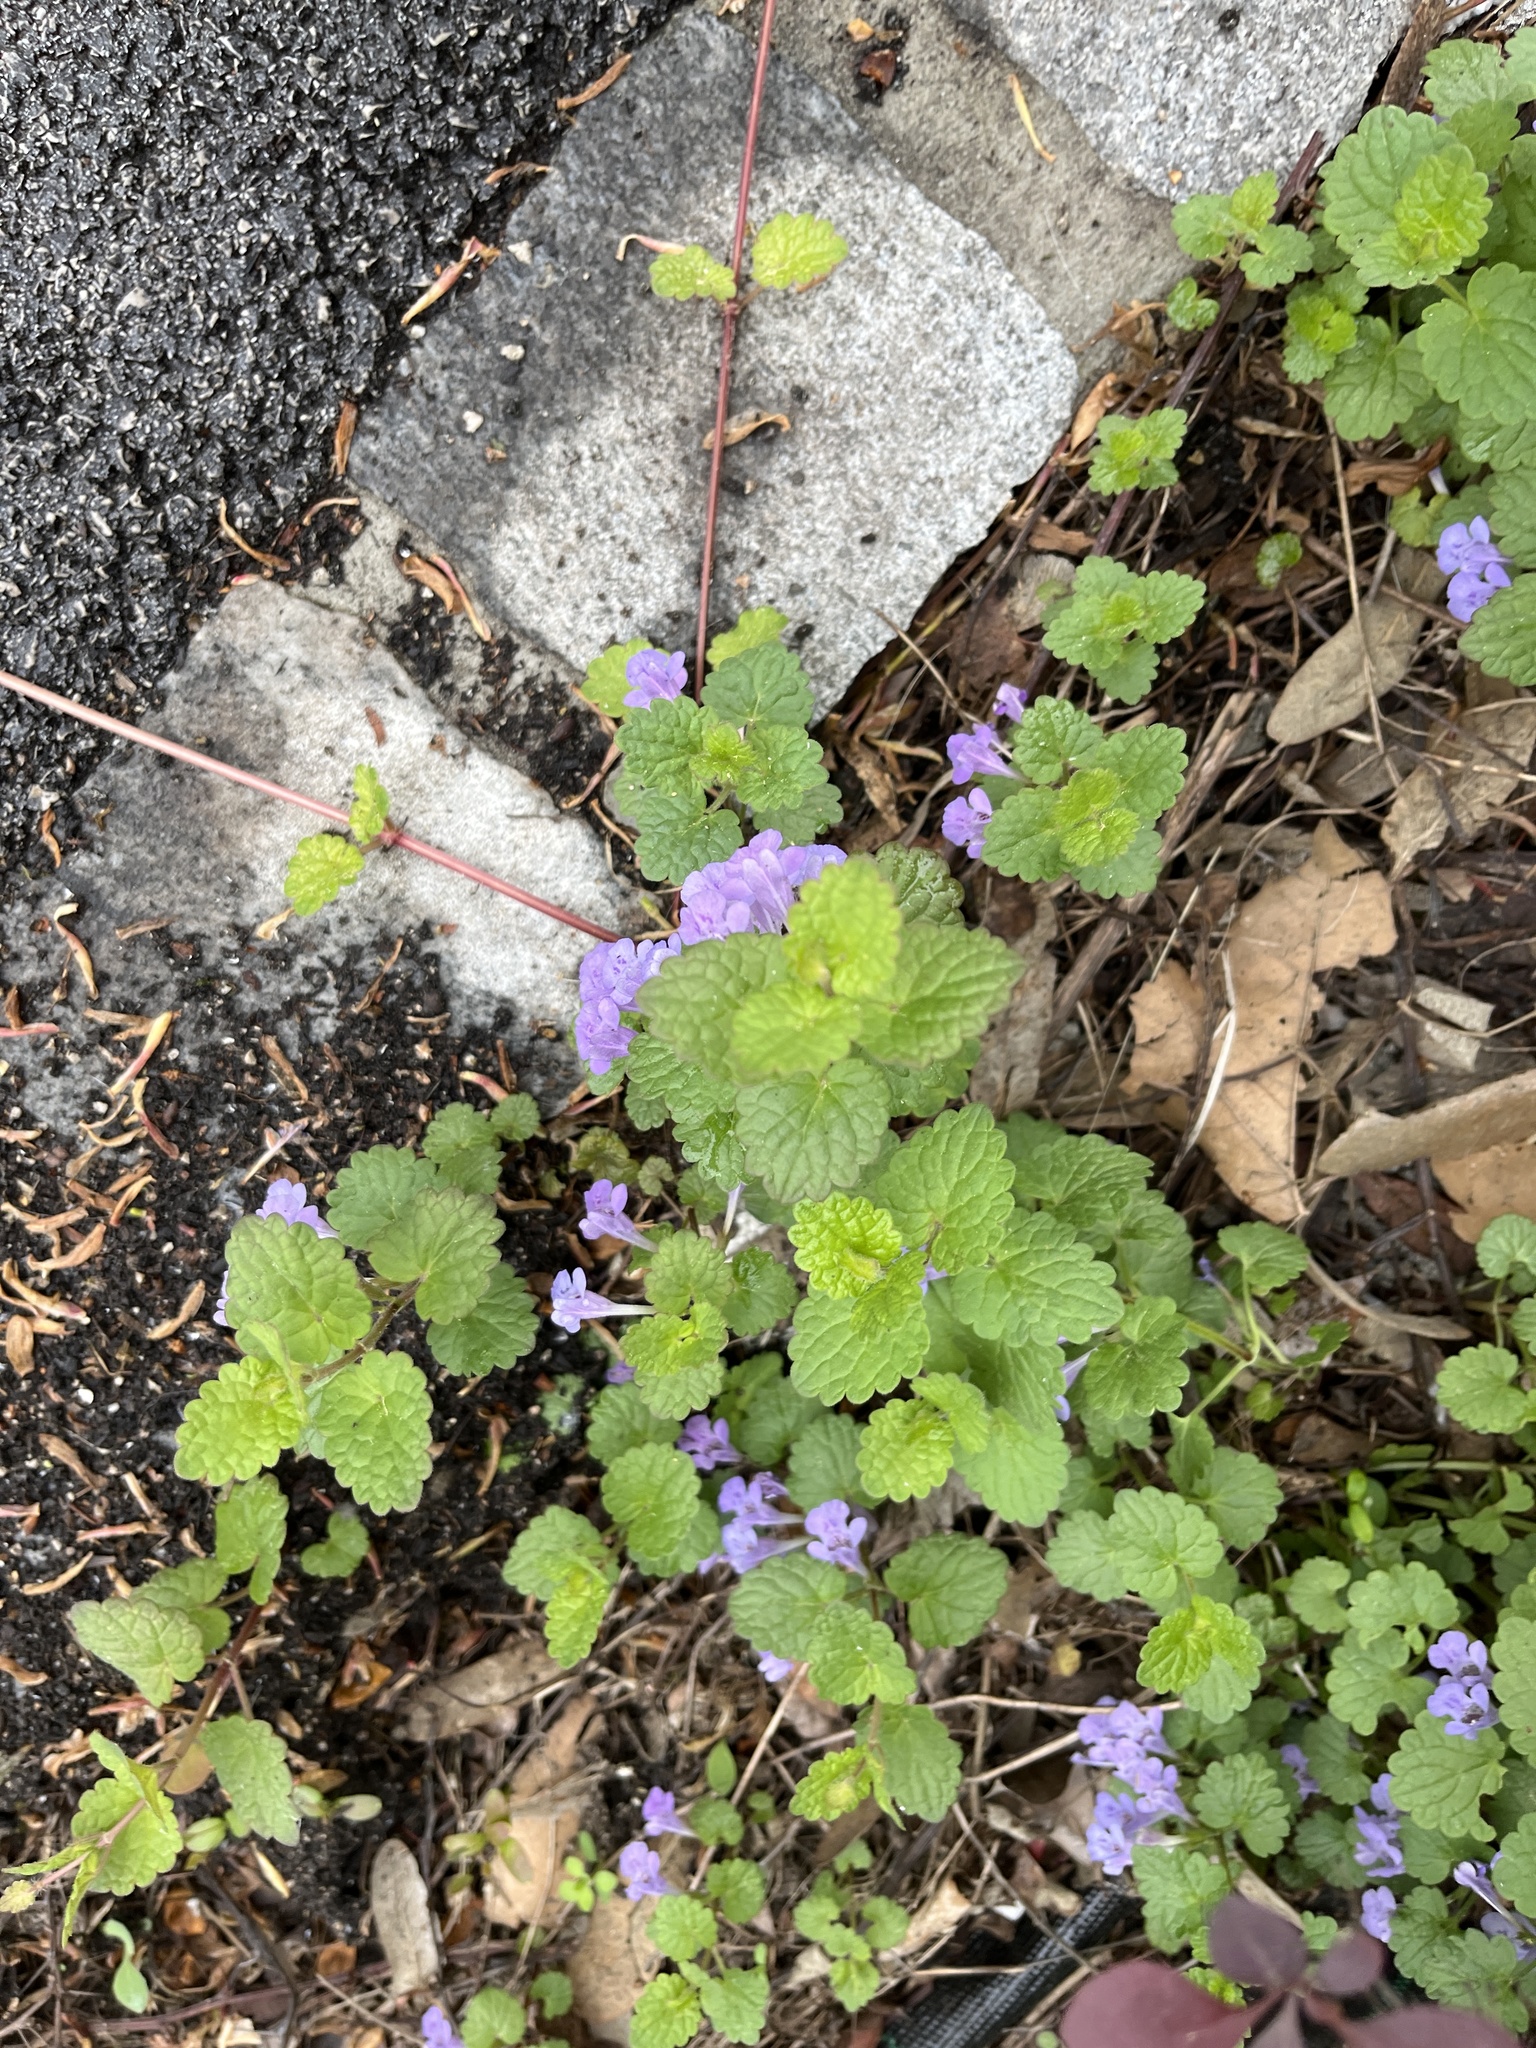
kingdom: Plantae
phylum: Tracheophyta
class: Magnoliopsida
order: Lamiales
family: Lamiaceae
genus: Glechoma
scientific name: Glechoma hederacea
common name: Ground ivy
